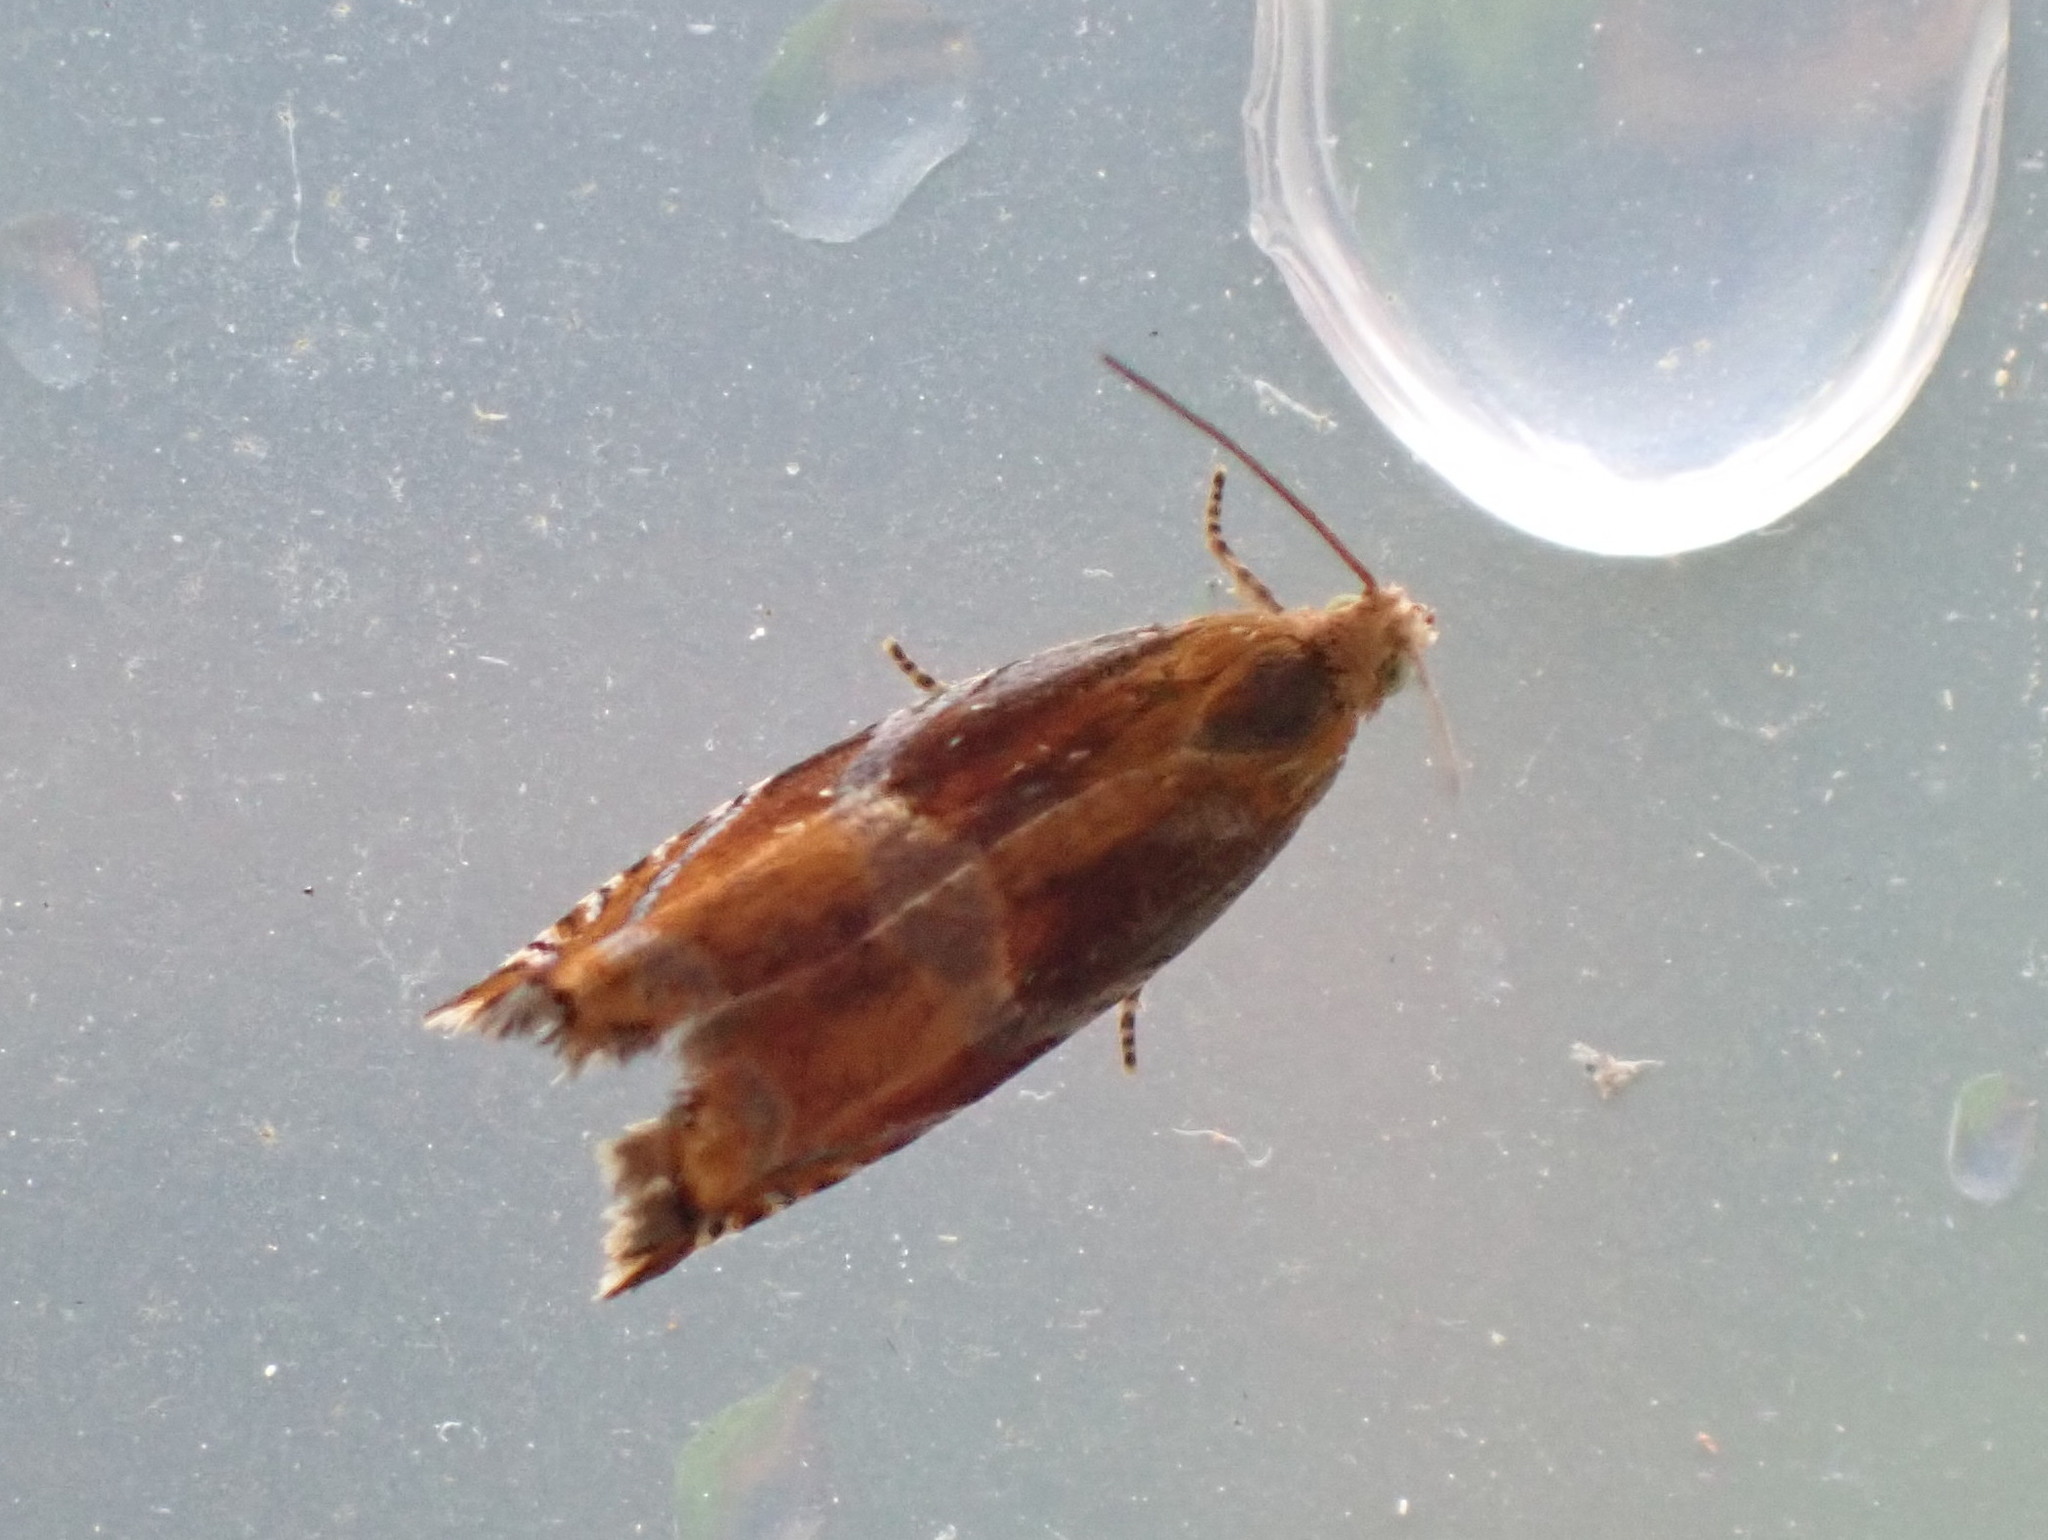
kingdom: Animalia
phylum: Arthropoda
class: Insecta
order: Lepidoptera
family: Tortricidae
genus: Ancylis
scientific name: Ancylis apicana
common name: Raspberry leaffolder moth
